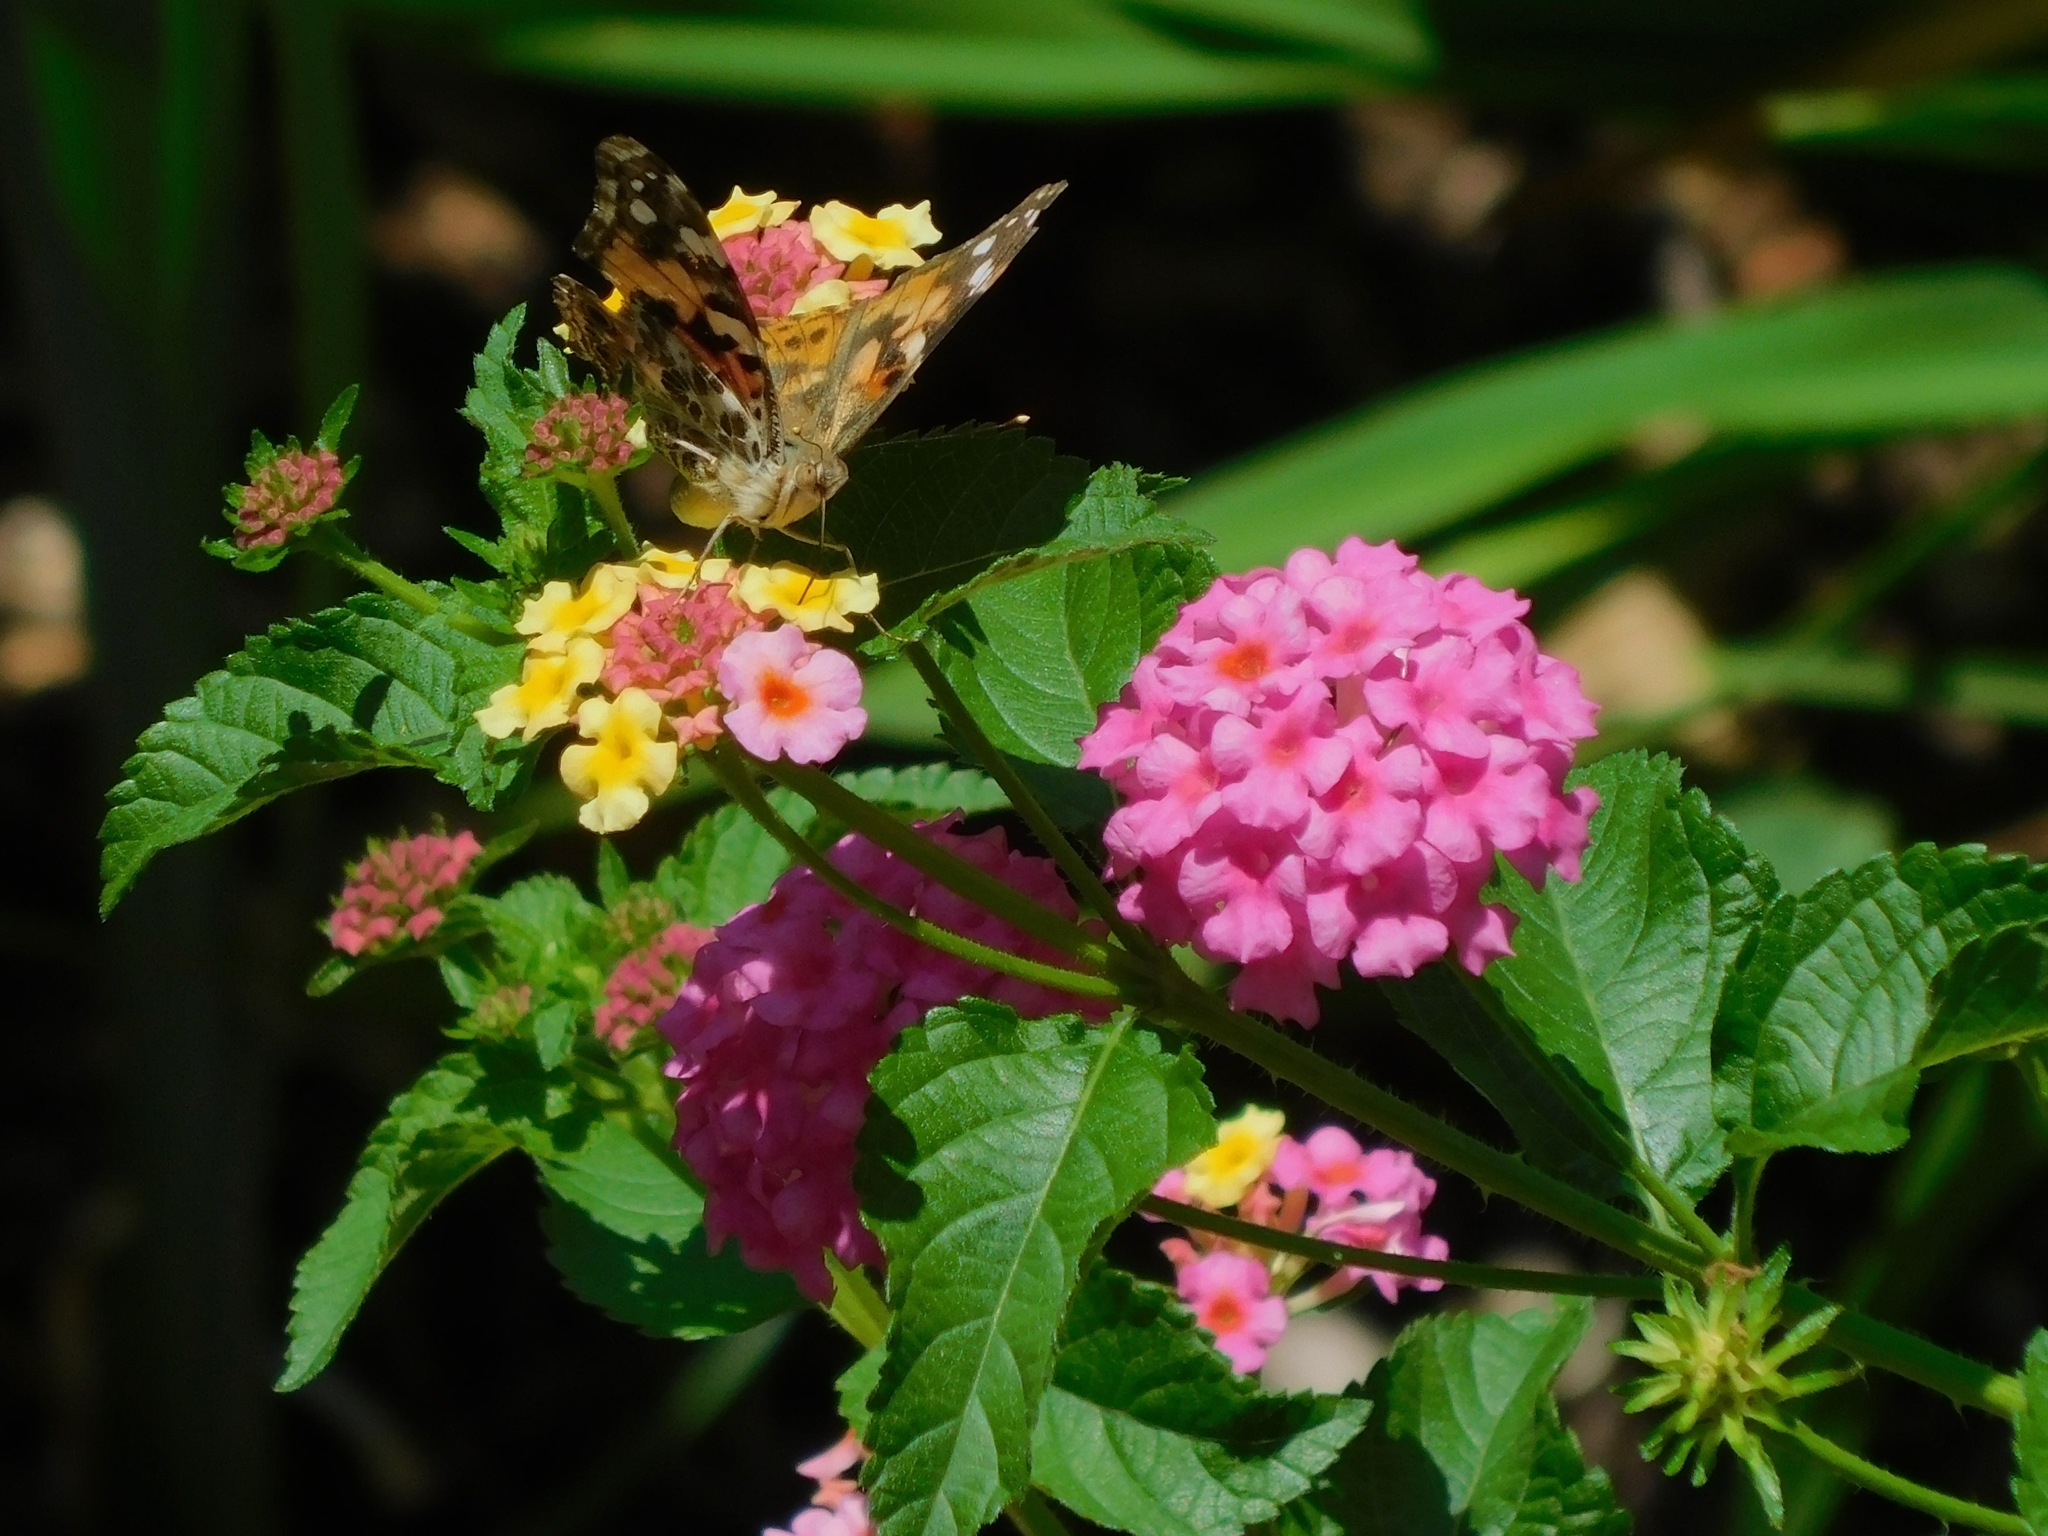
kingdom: Animalia
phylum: Arthropoda
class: Insecta
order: Lepidoptera
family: Nymphalidae
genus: Vanessa
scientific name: Vanessa cardui
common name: Painted lady
